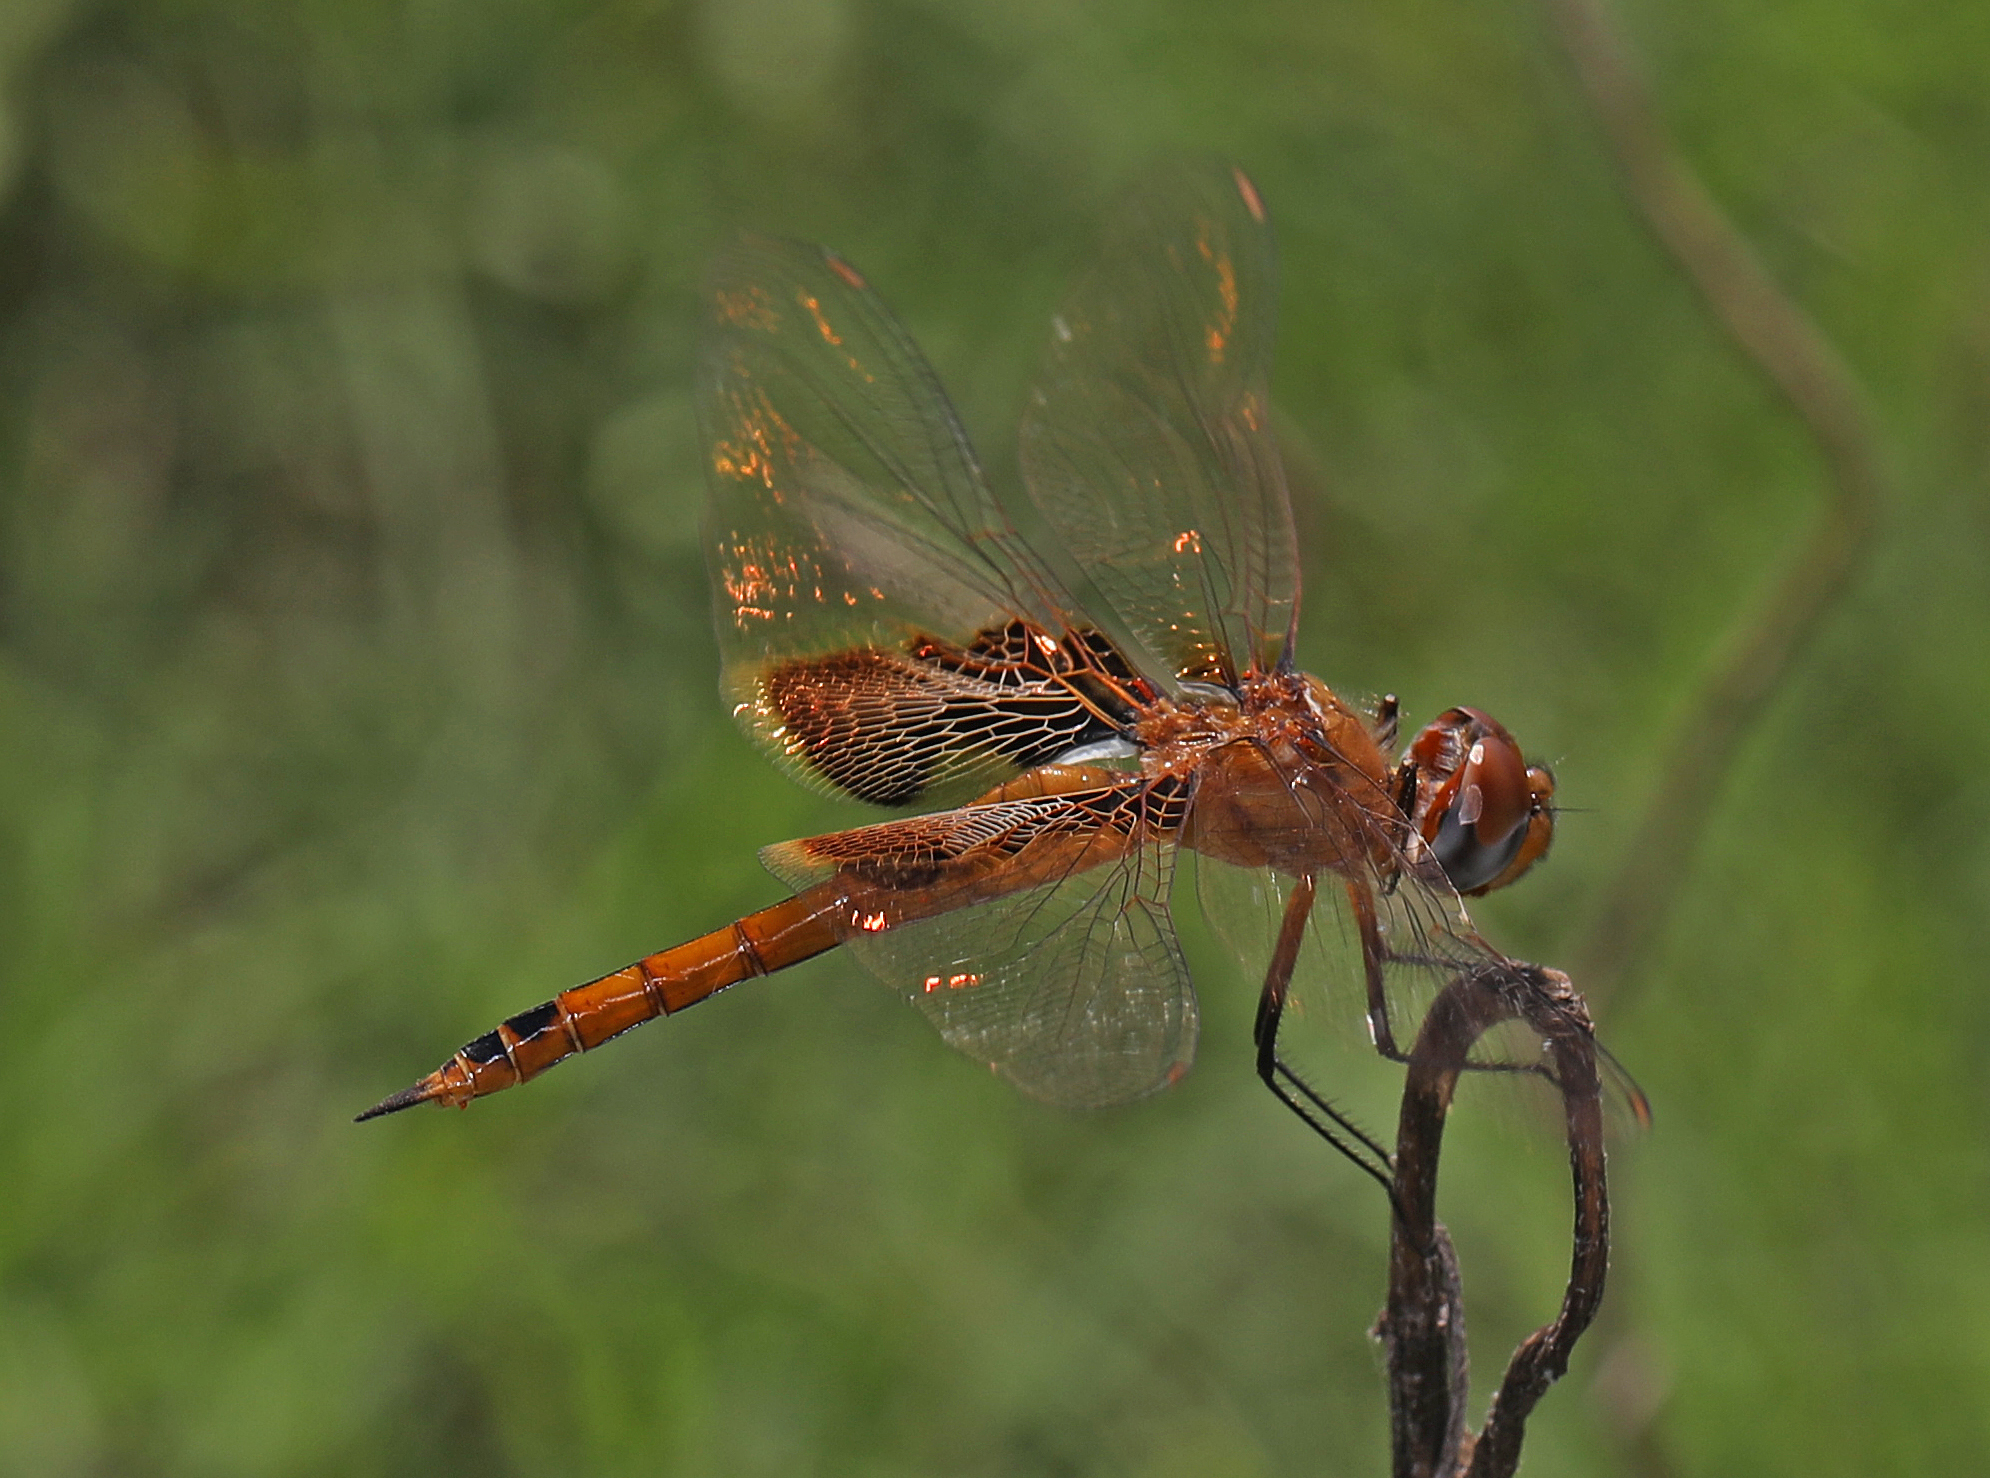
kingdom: Animalia
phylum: Arthropoda
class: Insecta
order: Odonata
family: Libellulidae
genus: Tramea
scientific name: Tramea onusta
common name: Red saddlebags
